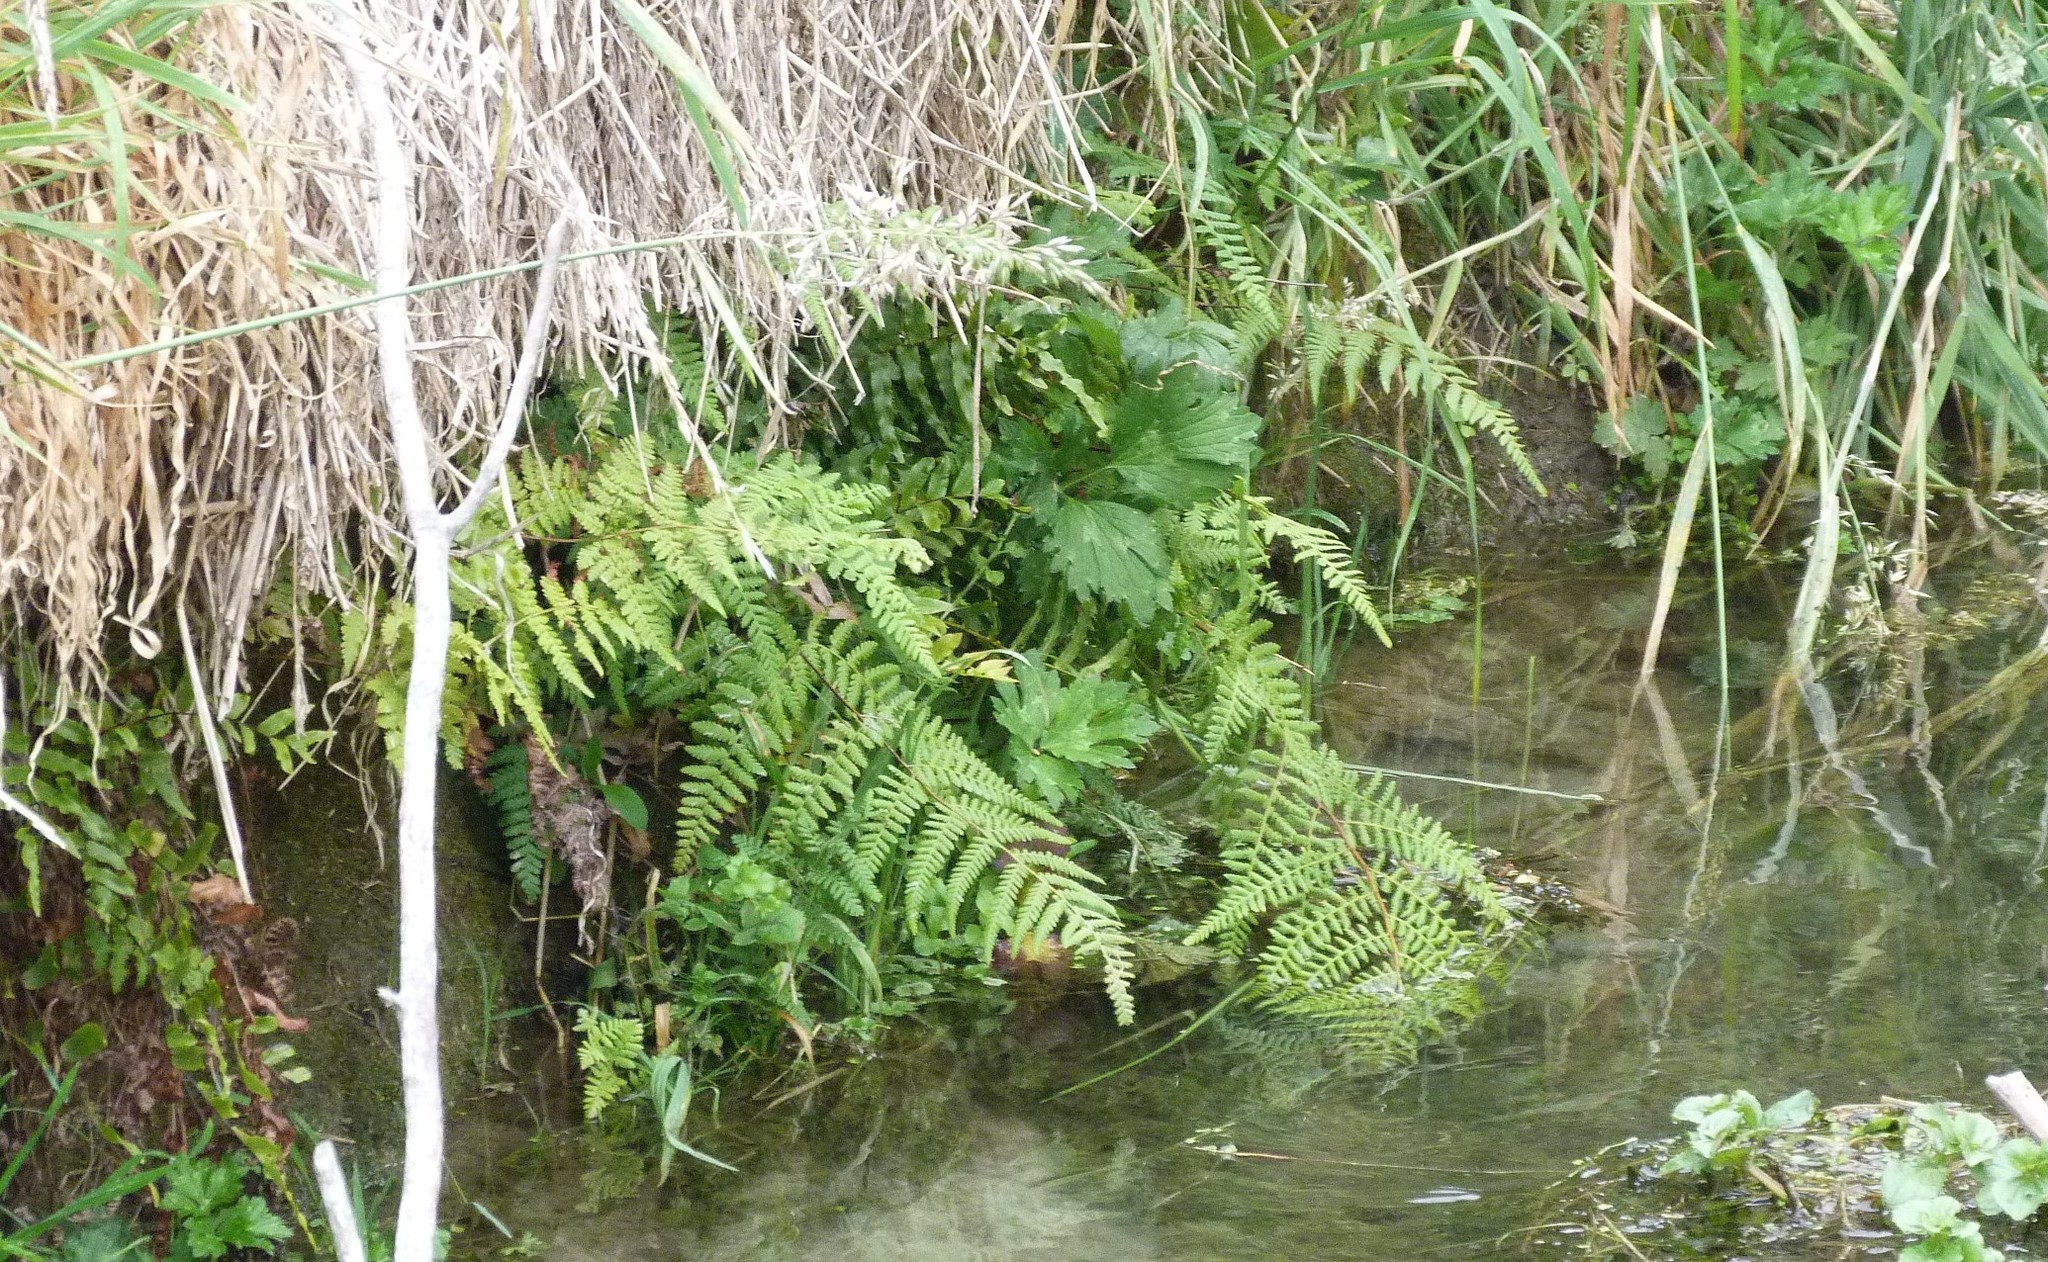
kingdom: Plantae
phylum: Tracheophyta
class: Polypodiopsida
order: Polypodiales
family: Dennstaedtiaceae
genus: Hypolepis
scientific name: Hypolepis ambigua
